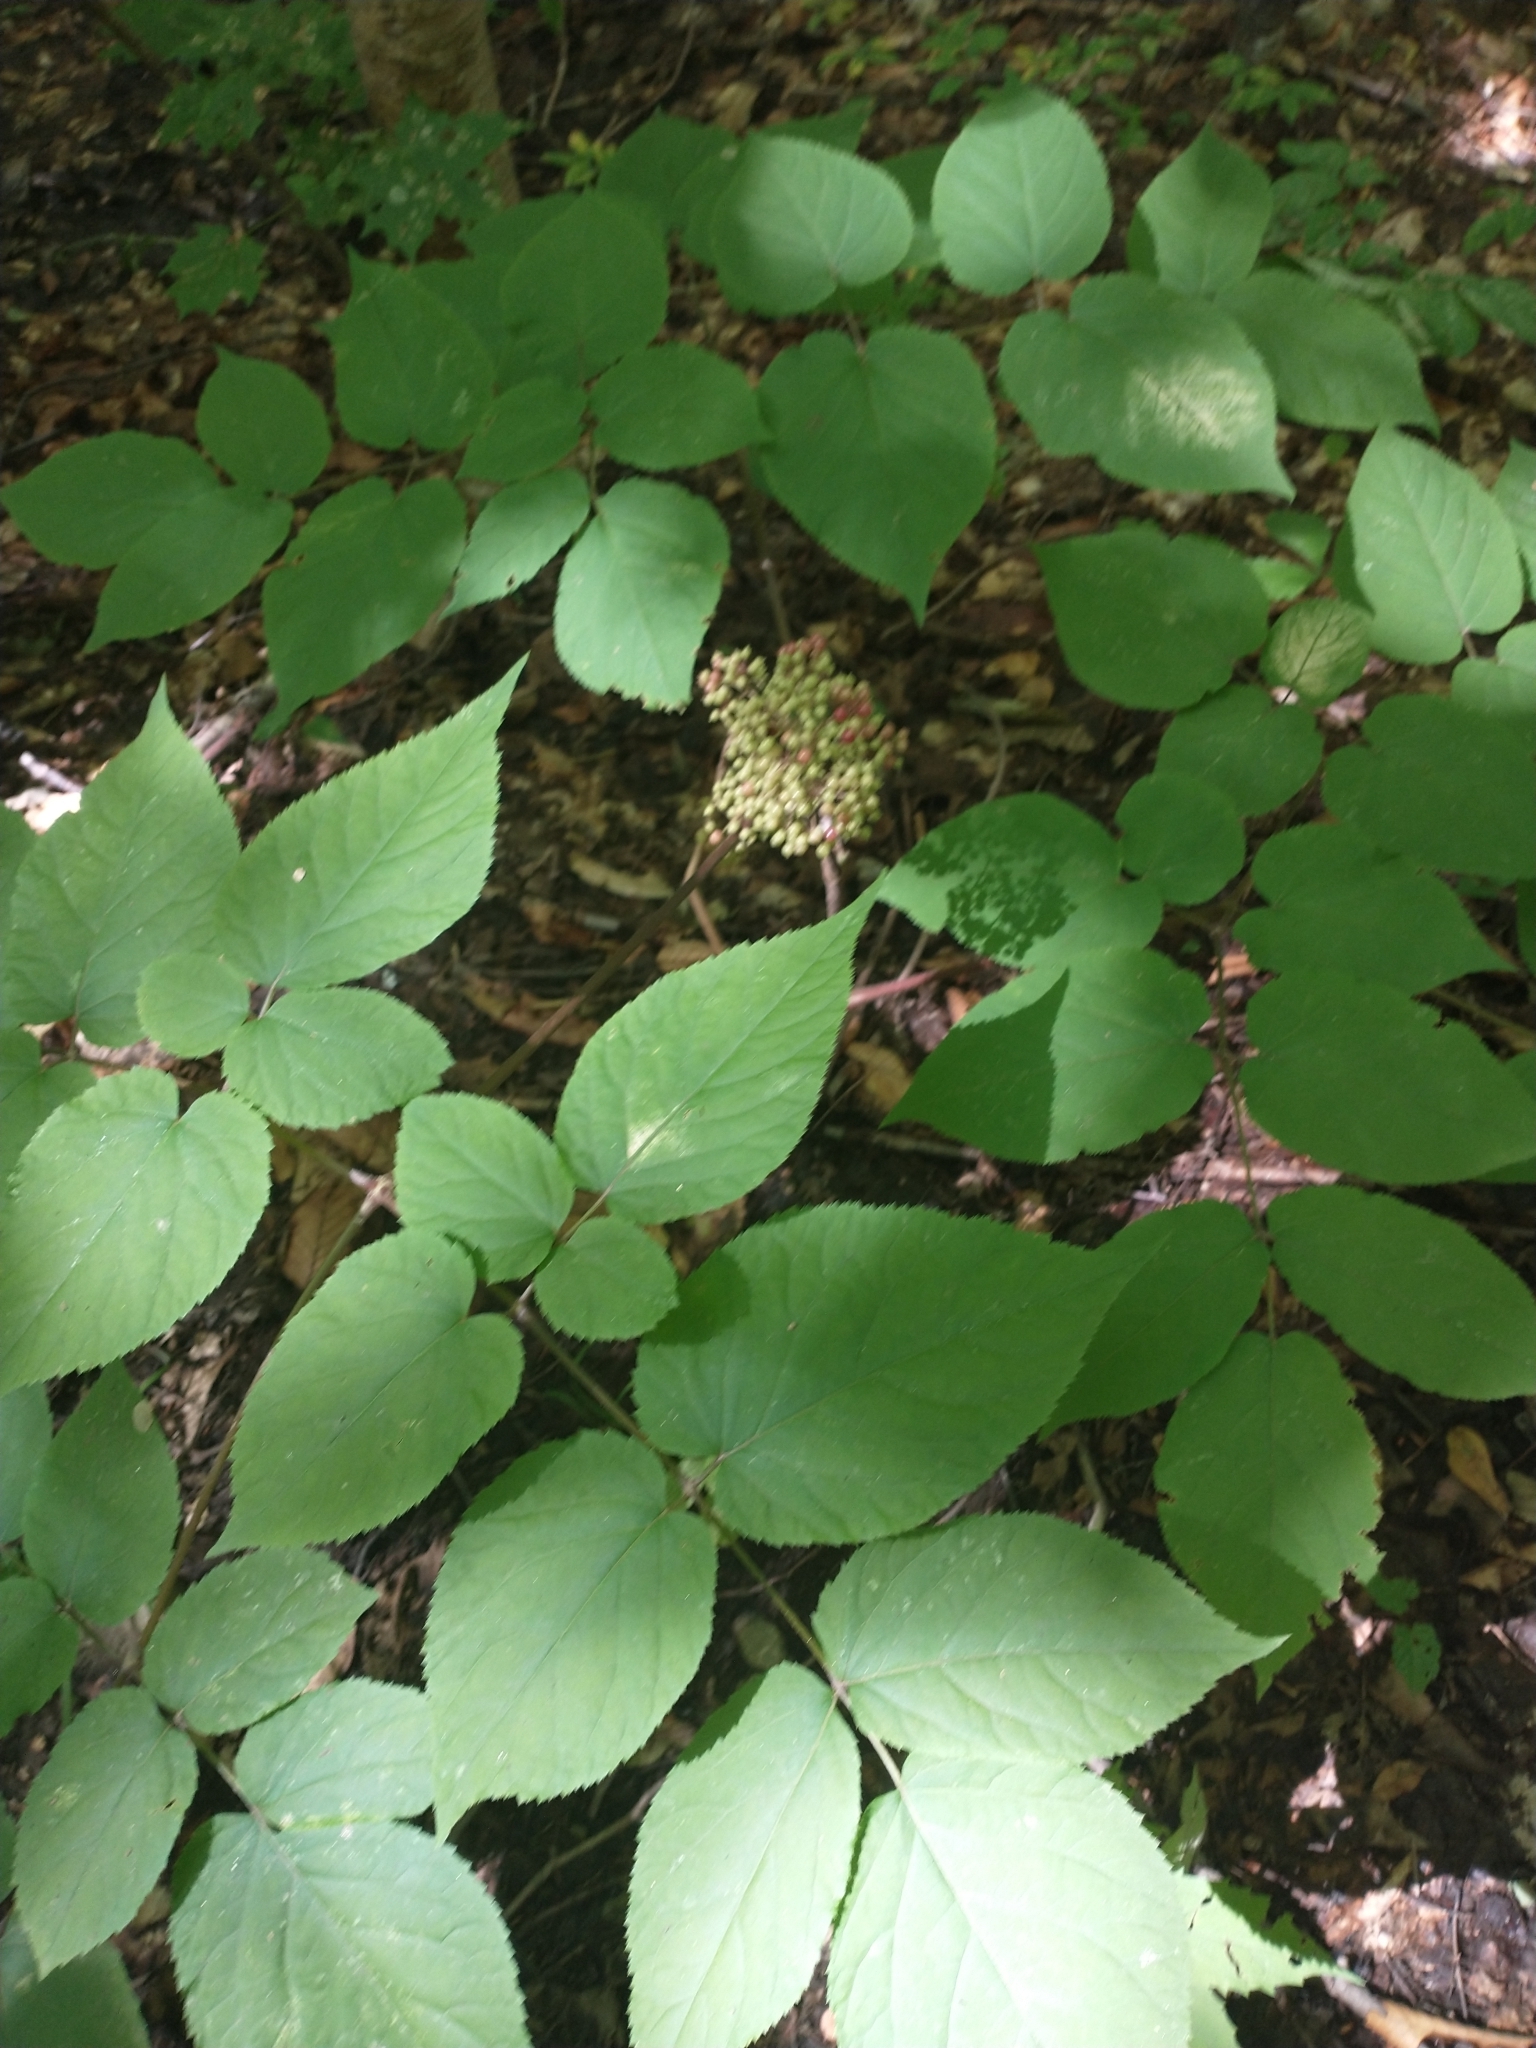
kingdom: Plantae
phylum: Tracheophyta
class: Magnoliopsida
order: Apiales
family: Araliaceae
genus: Aralia
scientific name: Aralia racemosa
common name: American-spikenard
